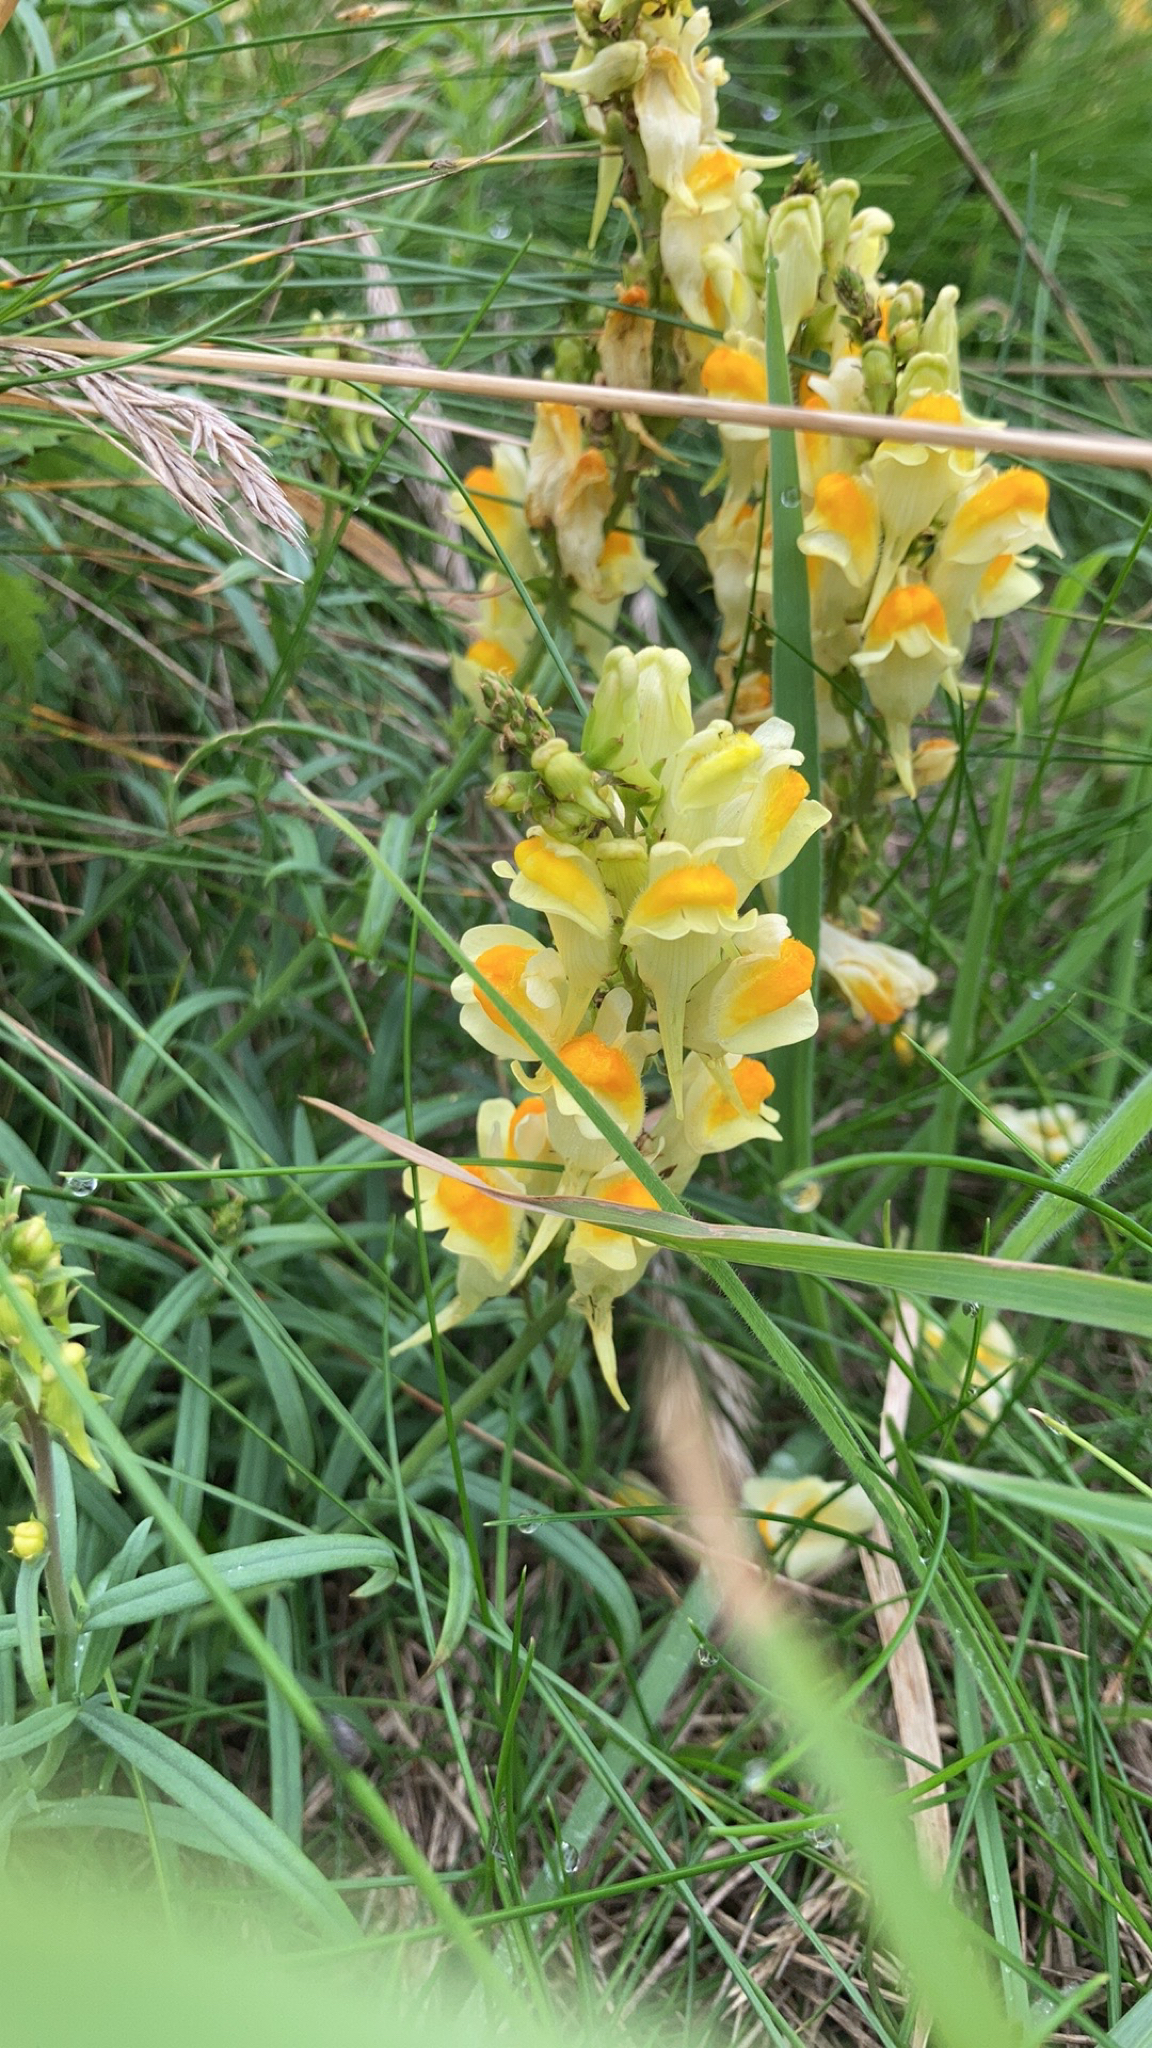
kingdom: Plantae
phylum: Tracheophyta
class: Magnoliopsida
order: Lamiales
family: Plantaginaceae
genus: Linaria
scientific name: Linaria vulgaris
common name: Butter and eggs
